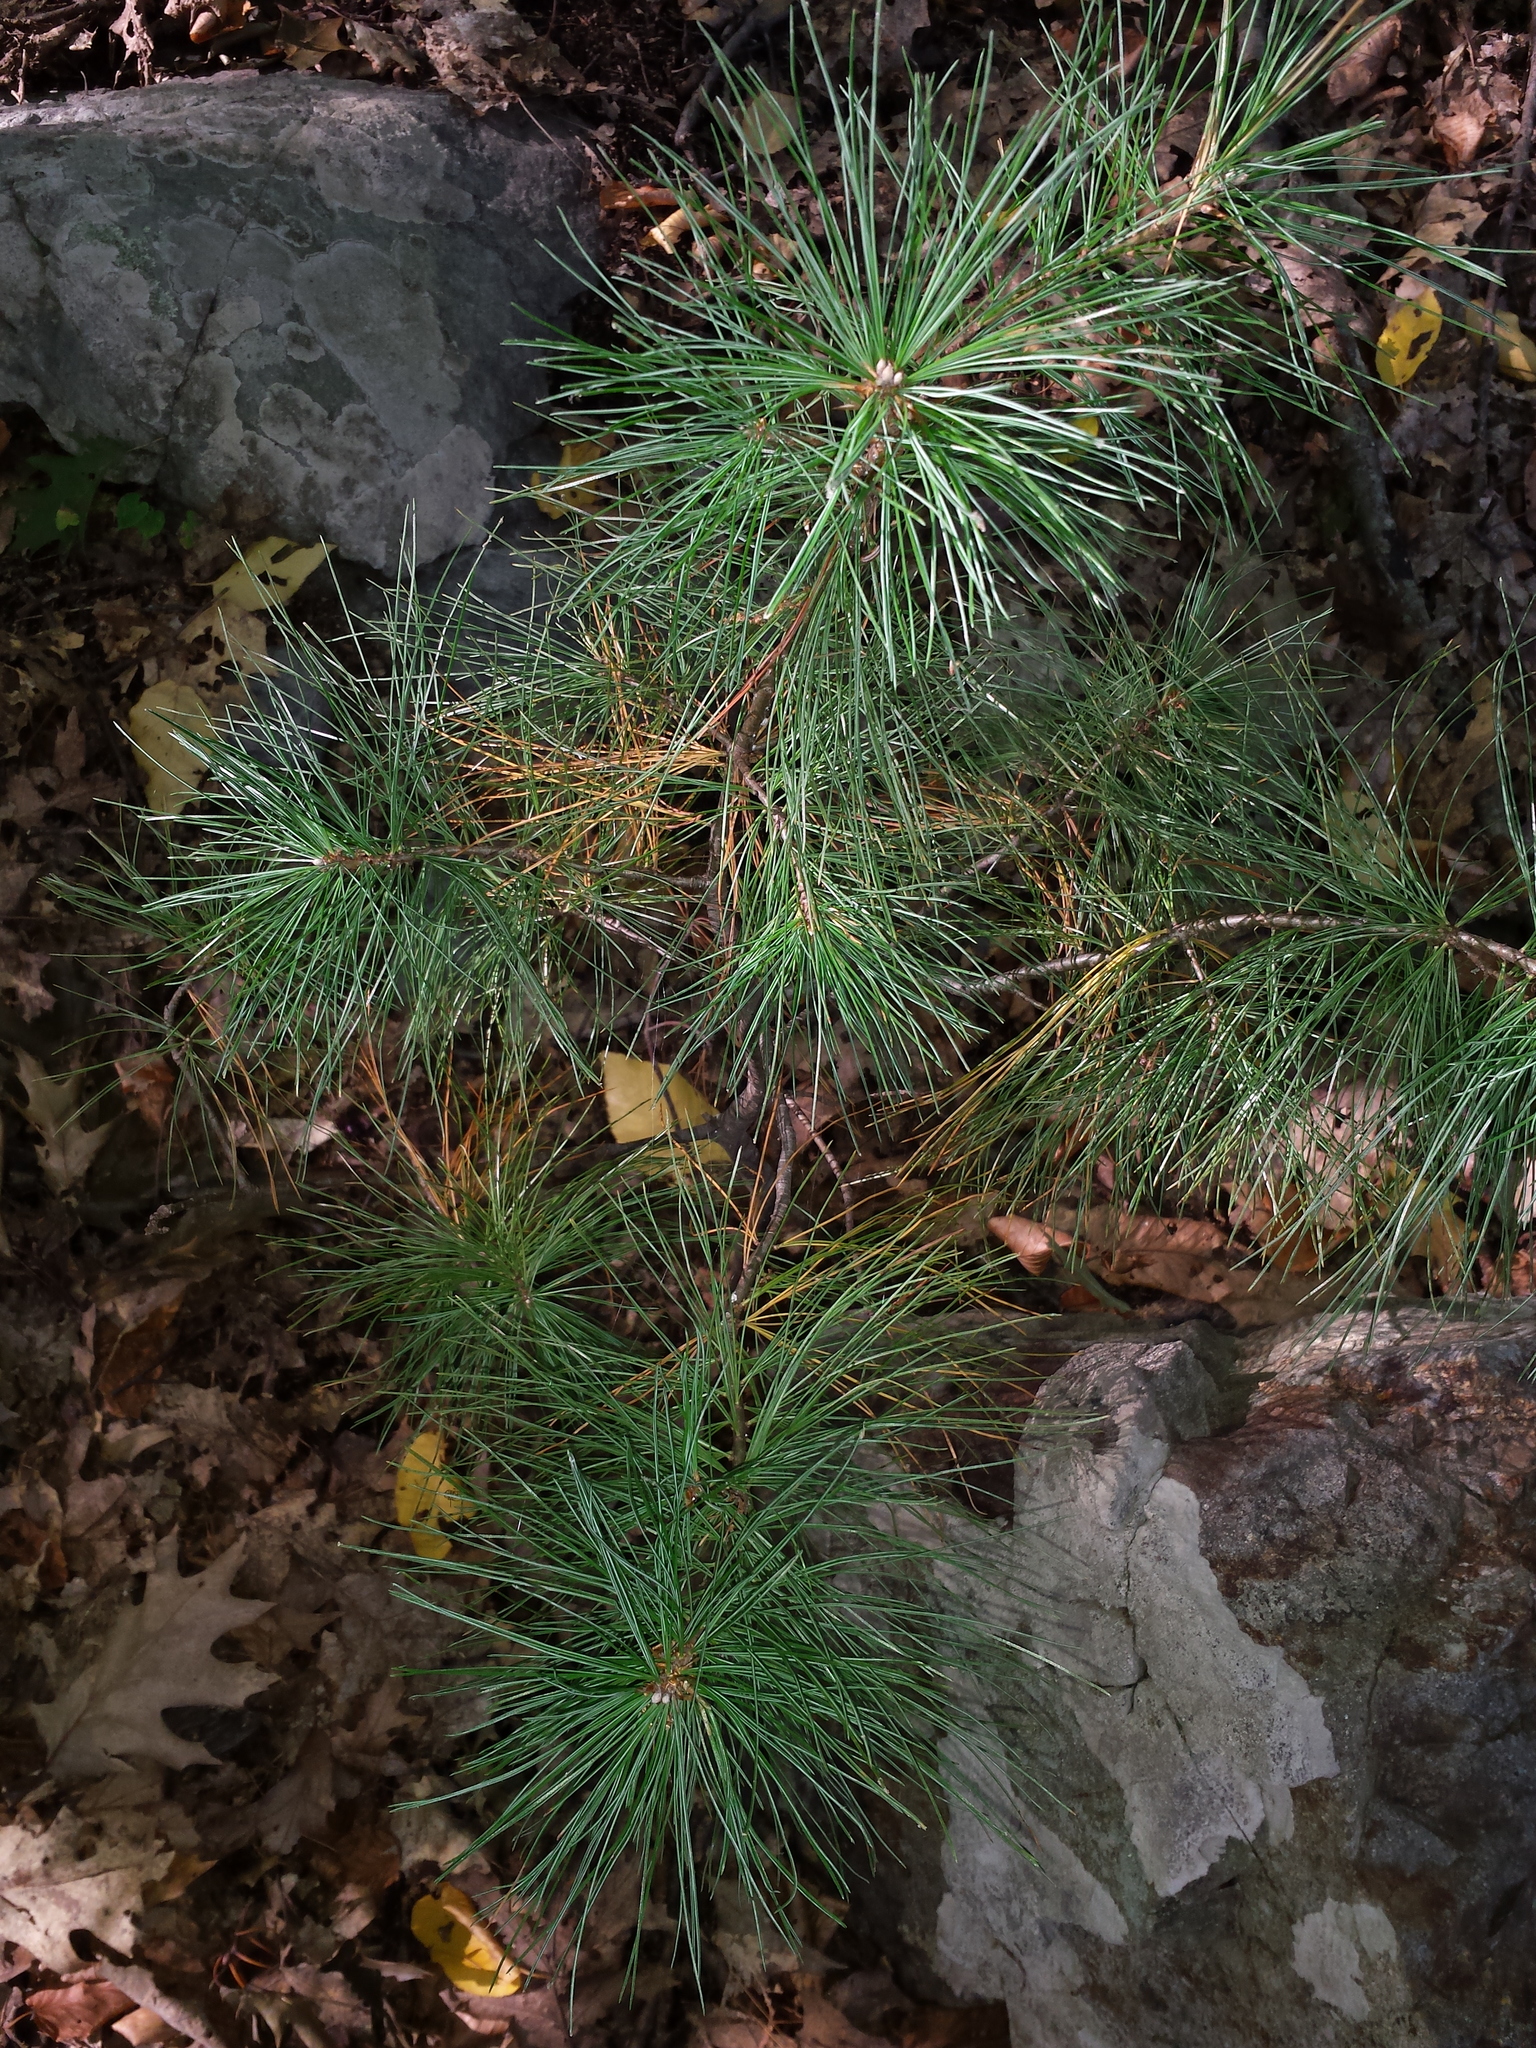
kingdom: Plantae
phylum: Tracheophyta
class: Pinopsida
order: Pinales
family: Pinaceae
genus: Pinus
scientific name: Pinus strobus
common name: Weymouth pine
